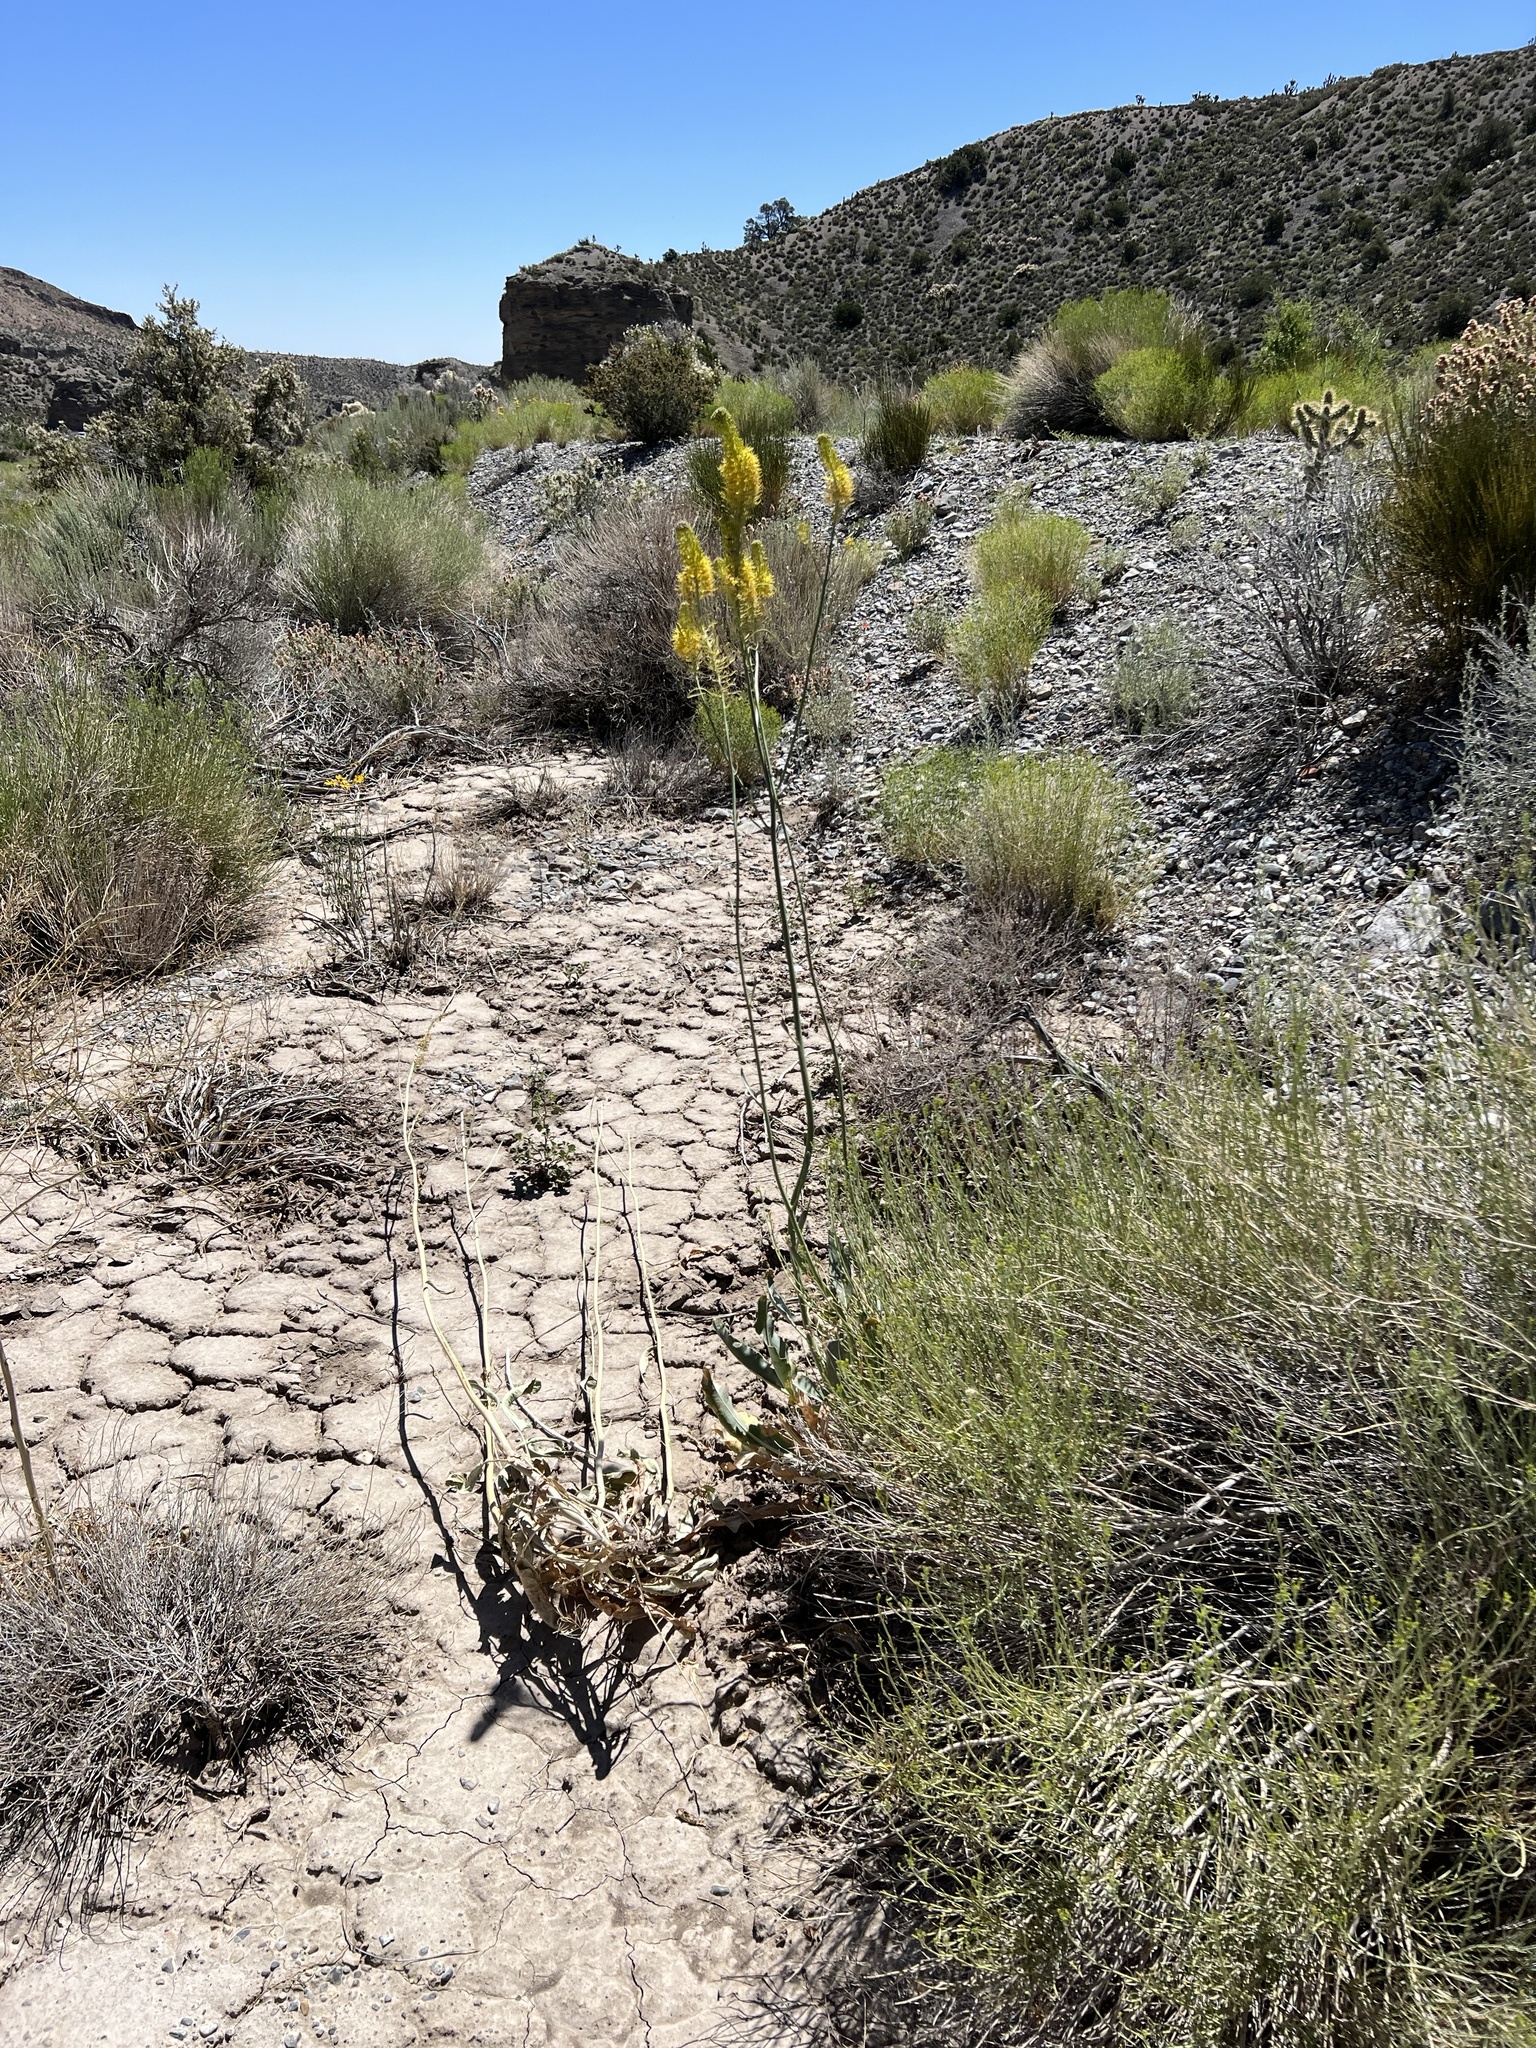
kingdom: Plantae
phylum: Tracheophyta
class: Magnoliopsida
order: Brassicales
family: Brassicaceae
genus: Stanleya
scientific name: Stanleya elata
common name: Panamint prince's plume
